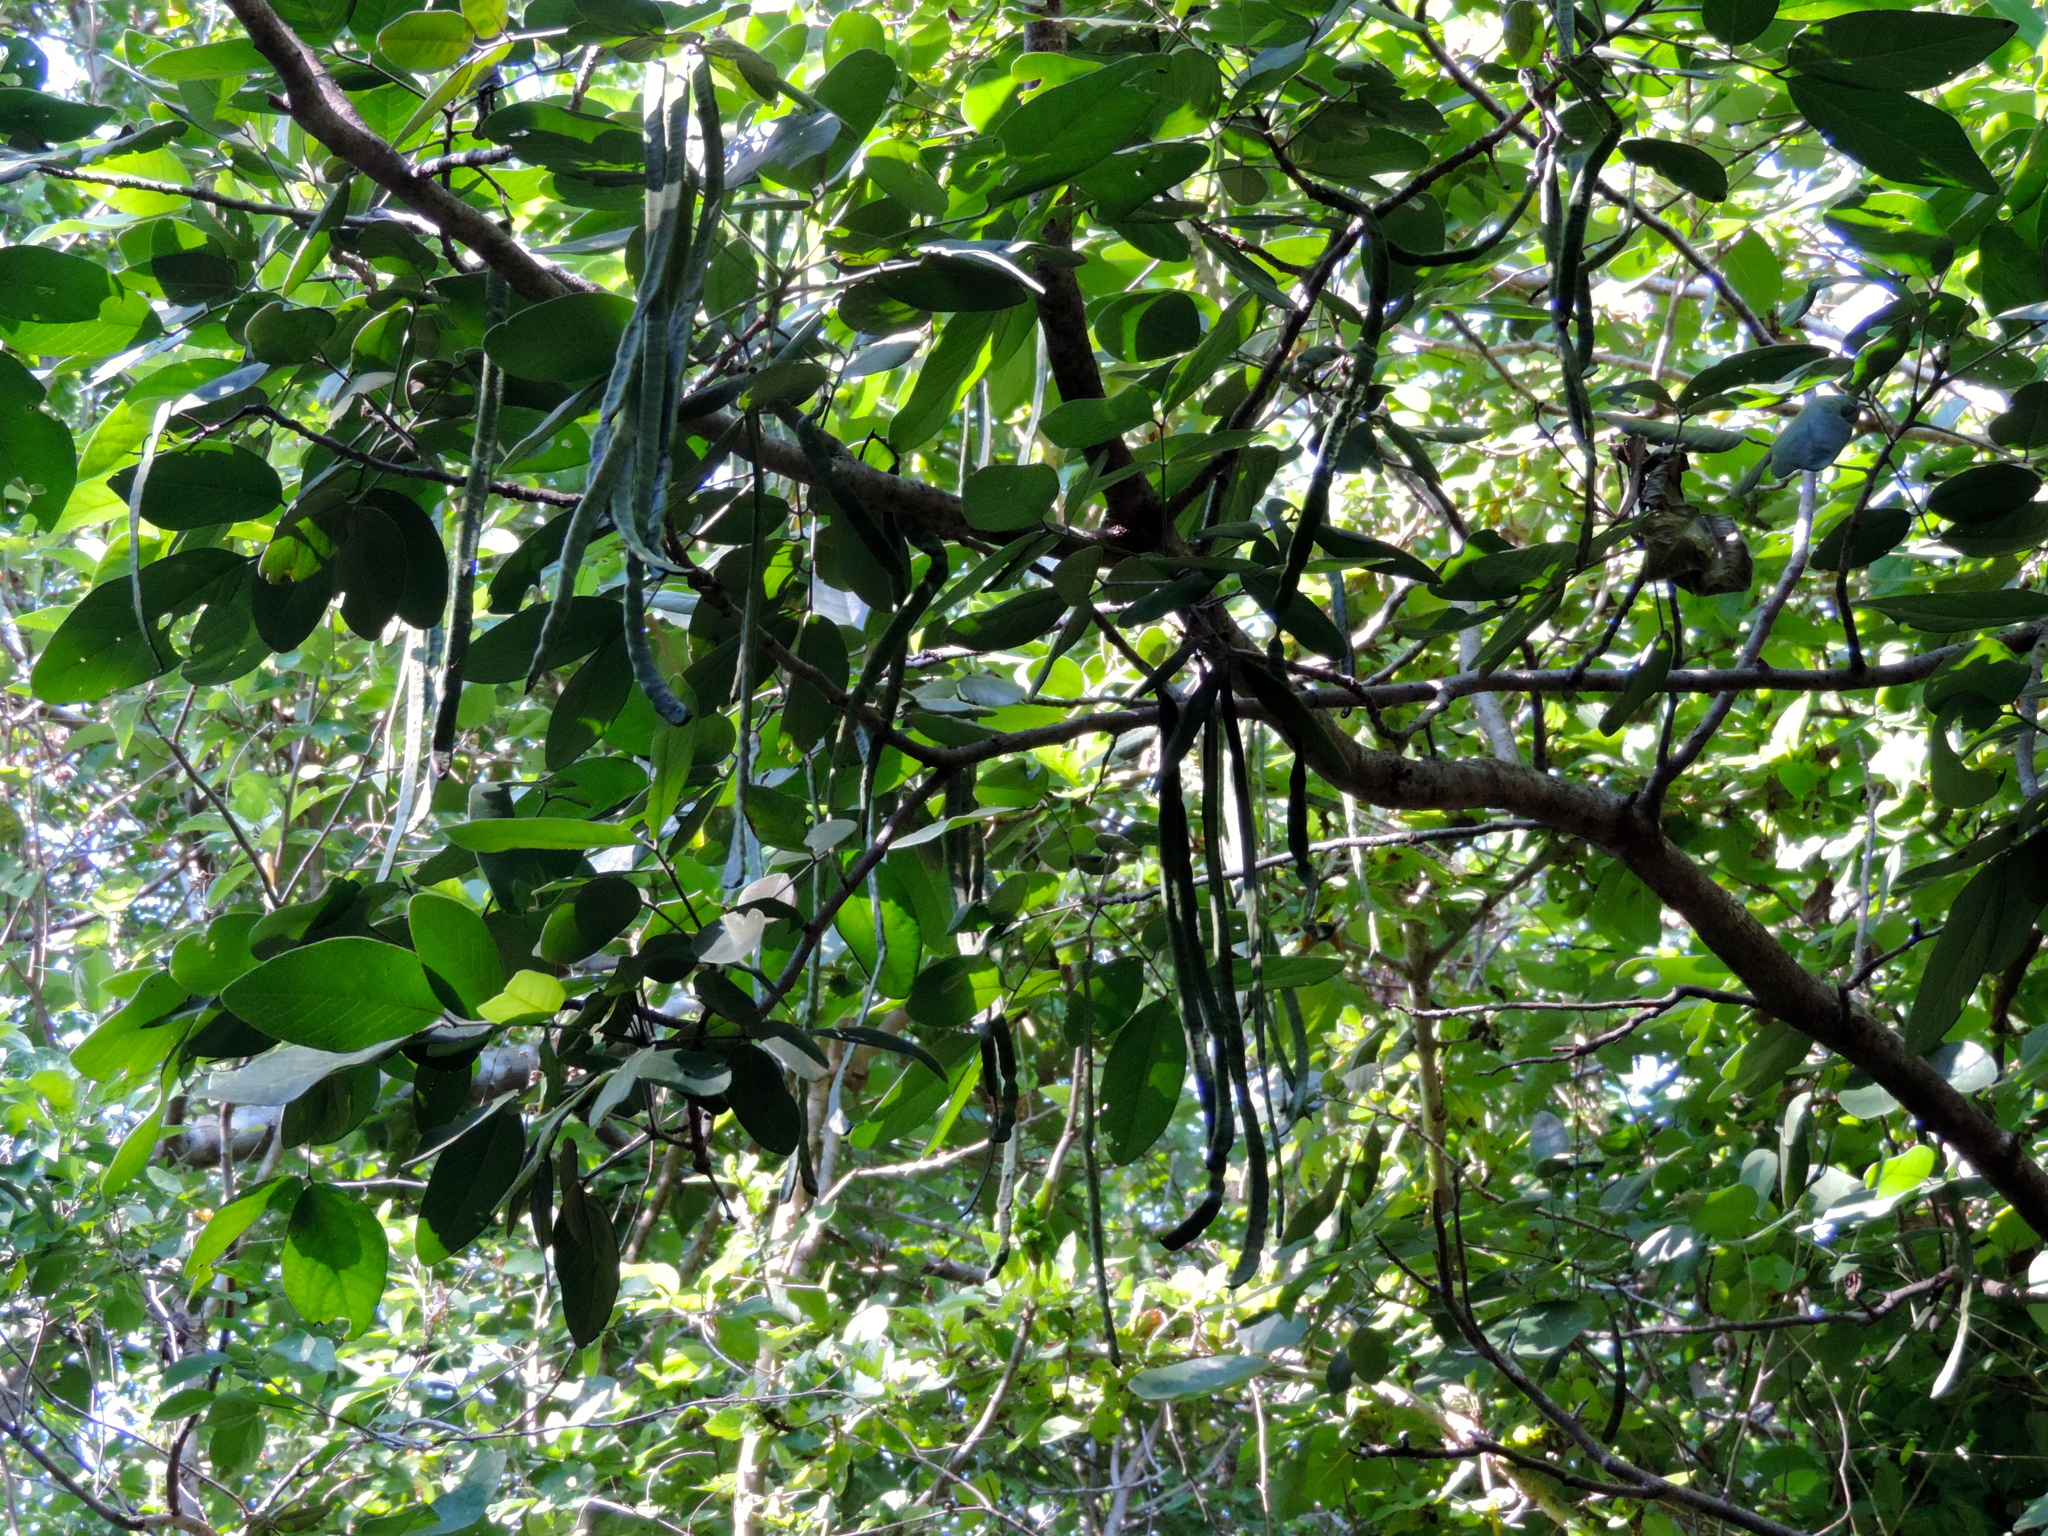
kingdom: Plantae
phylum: Tracheophyta
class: Magnoliopsida
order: Fabales
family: Fabaceae
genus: Senna
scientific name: Senna atomaria
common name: Flor de san jose
